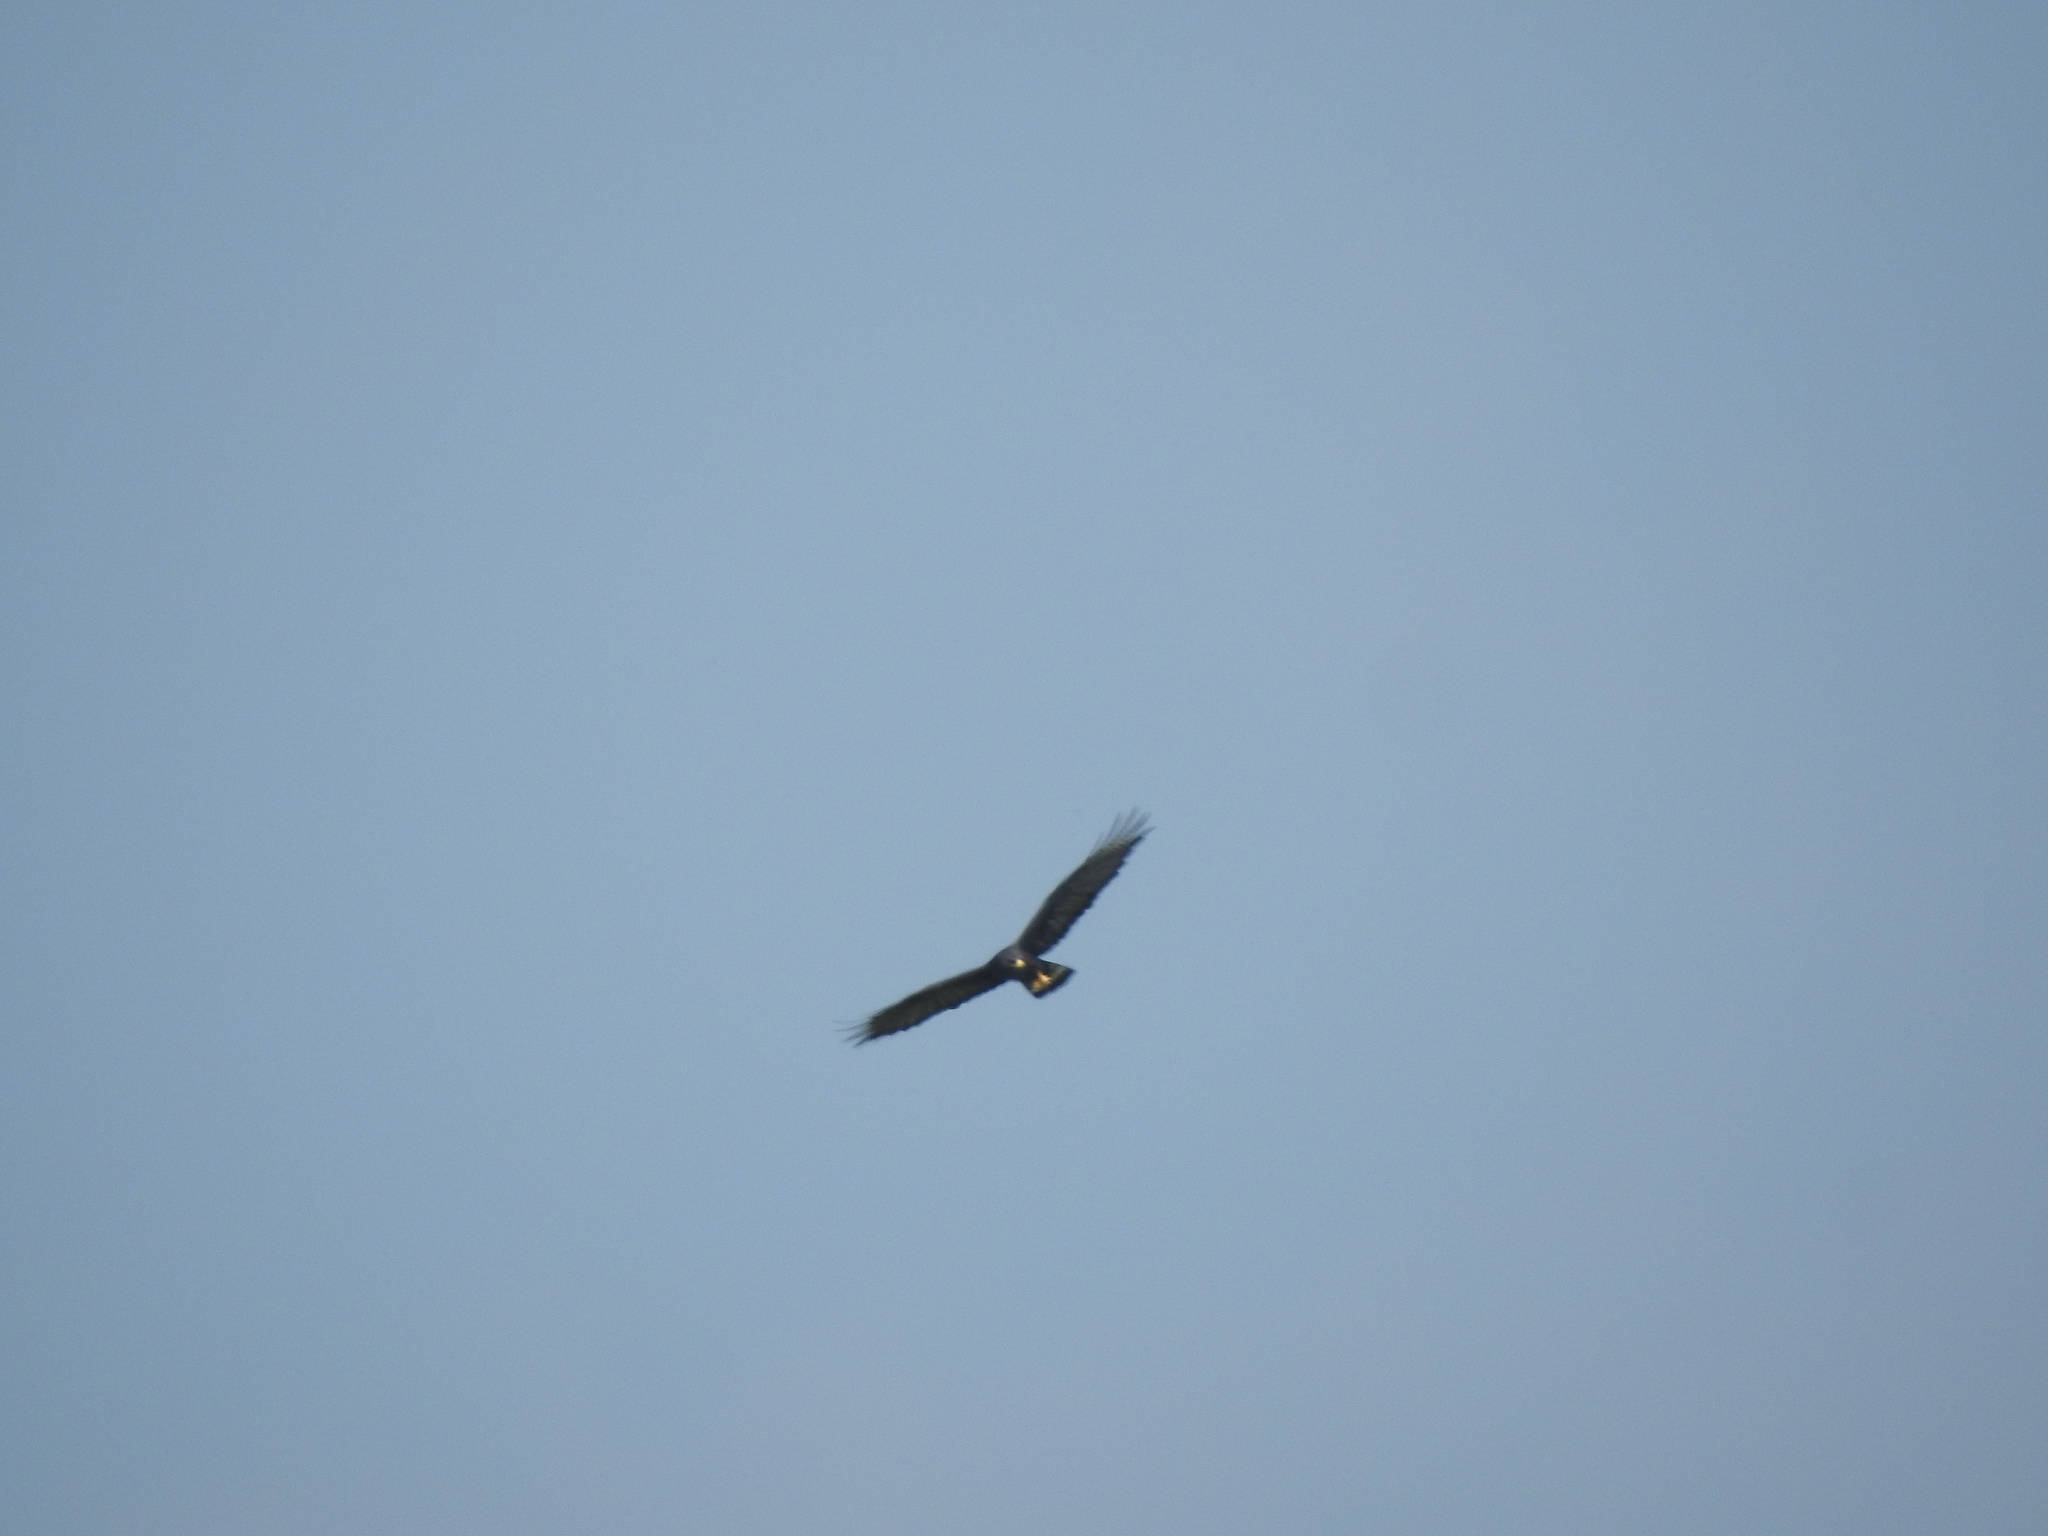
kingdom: Animalia
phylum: Chordata
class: Aves
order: Accipitriformes
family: Accipitridae
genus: Buteo
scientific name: Buteo albonotatus
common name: Zone-tailed hawk
